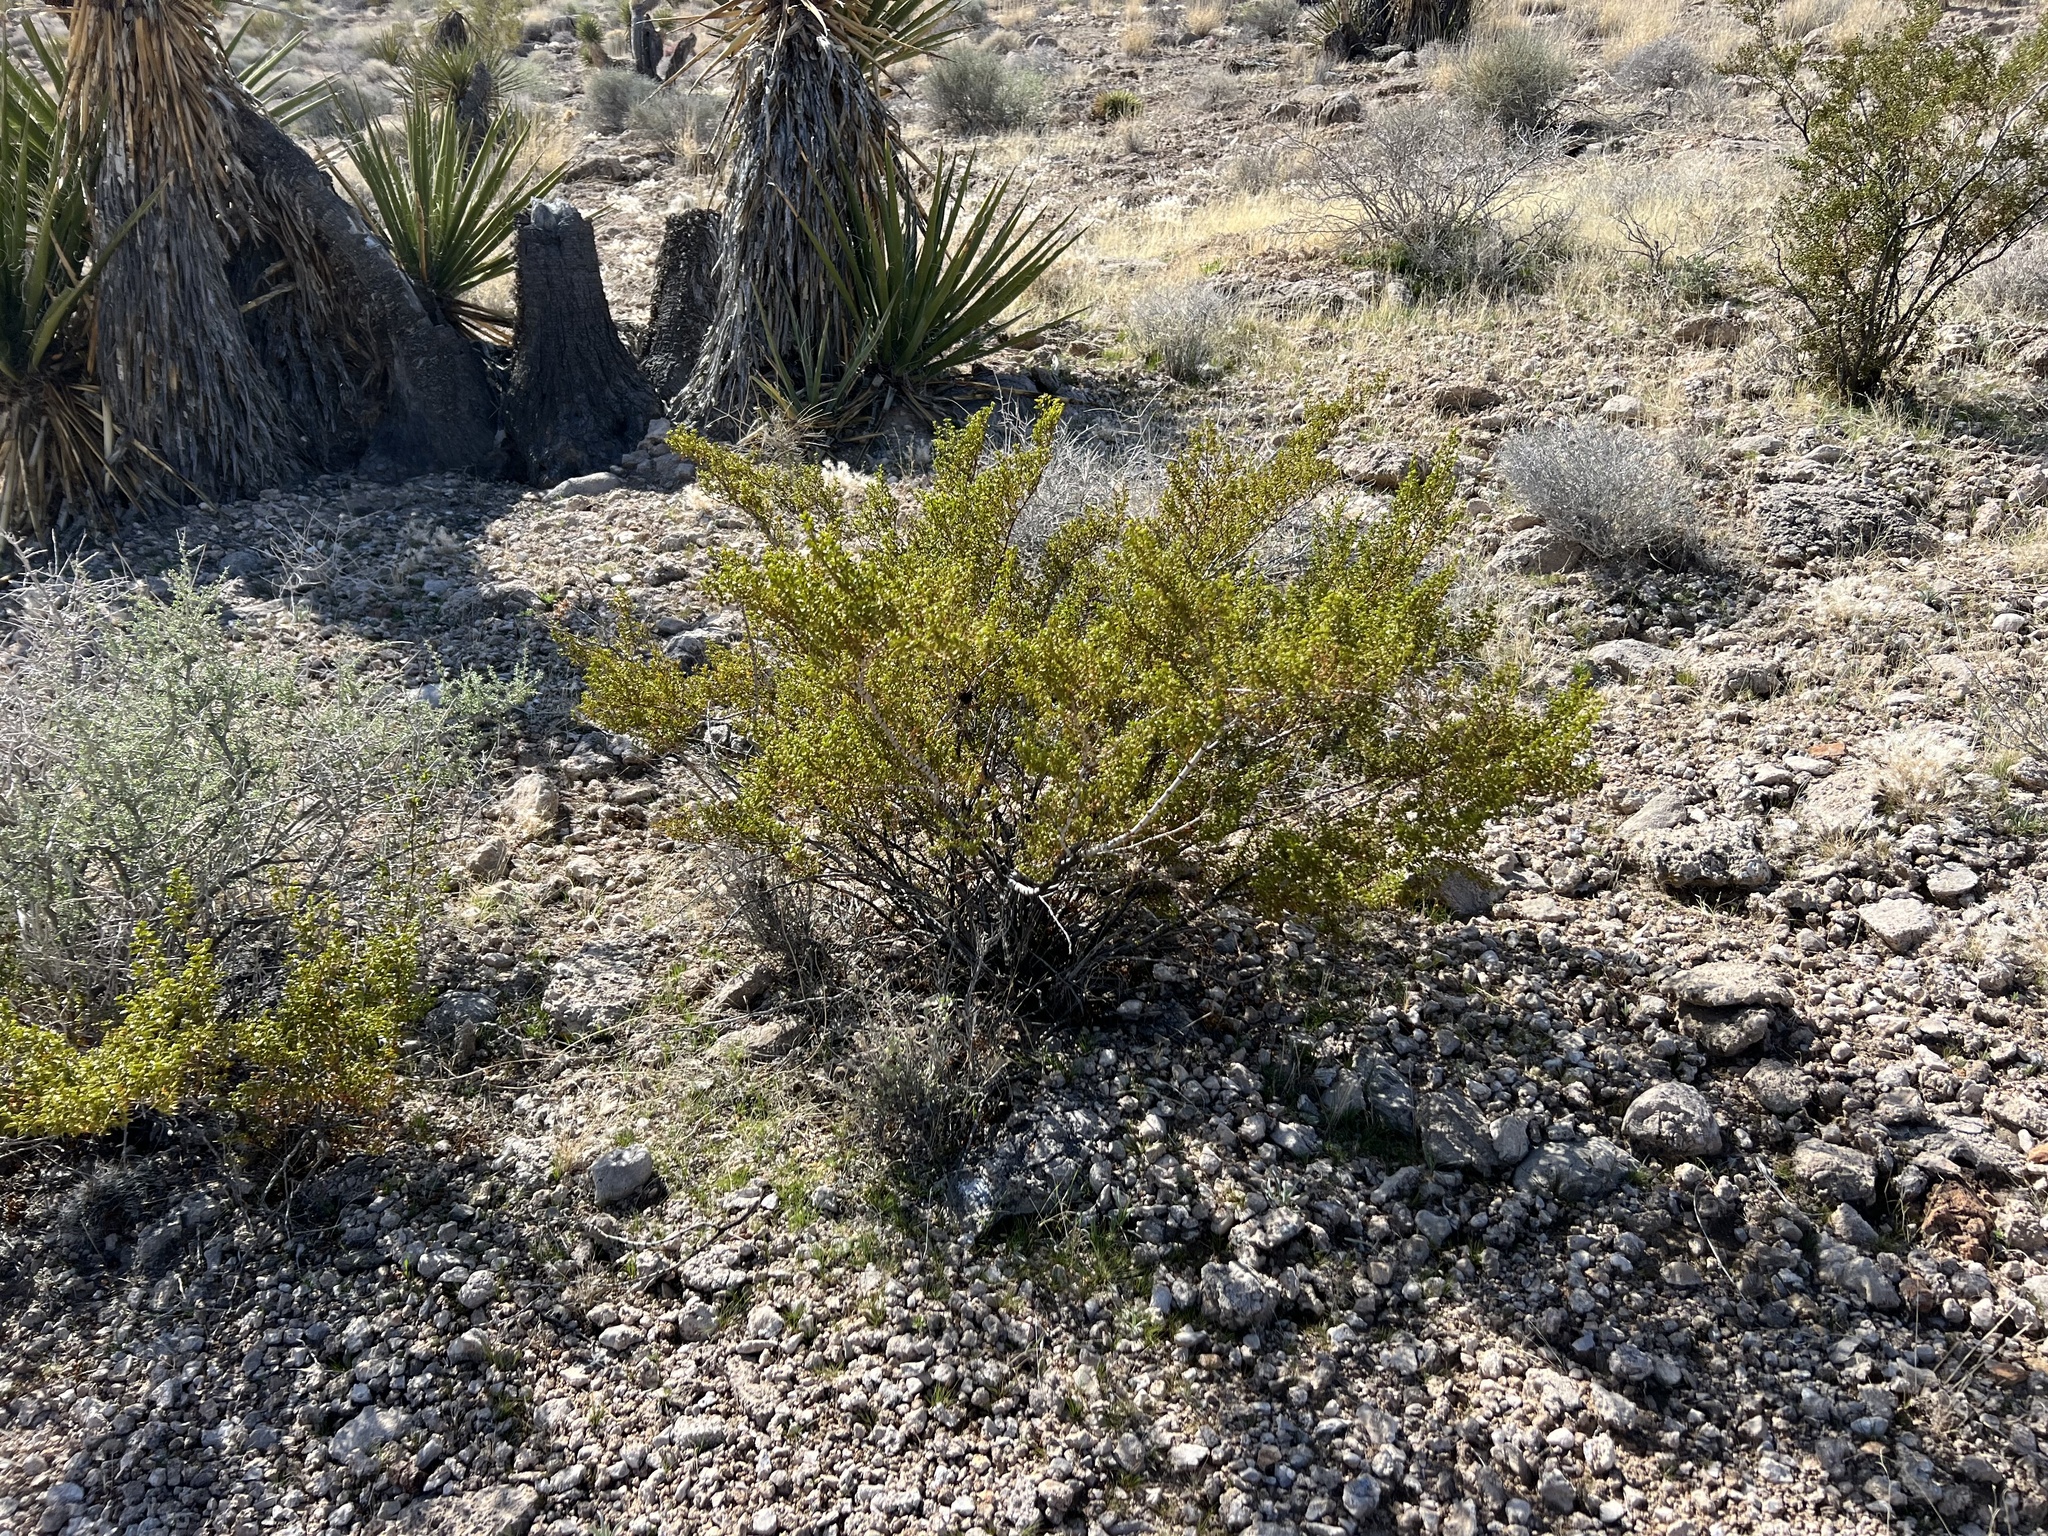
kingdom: Plantae
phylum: Tracheophyta
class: Magnoliopsida
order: Zygophyllales
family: Zygophyllaceae
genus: Larrea
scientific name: Larrea tridentata
